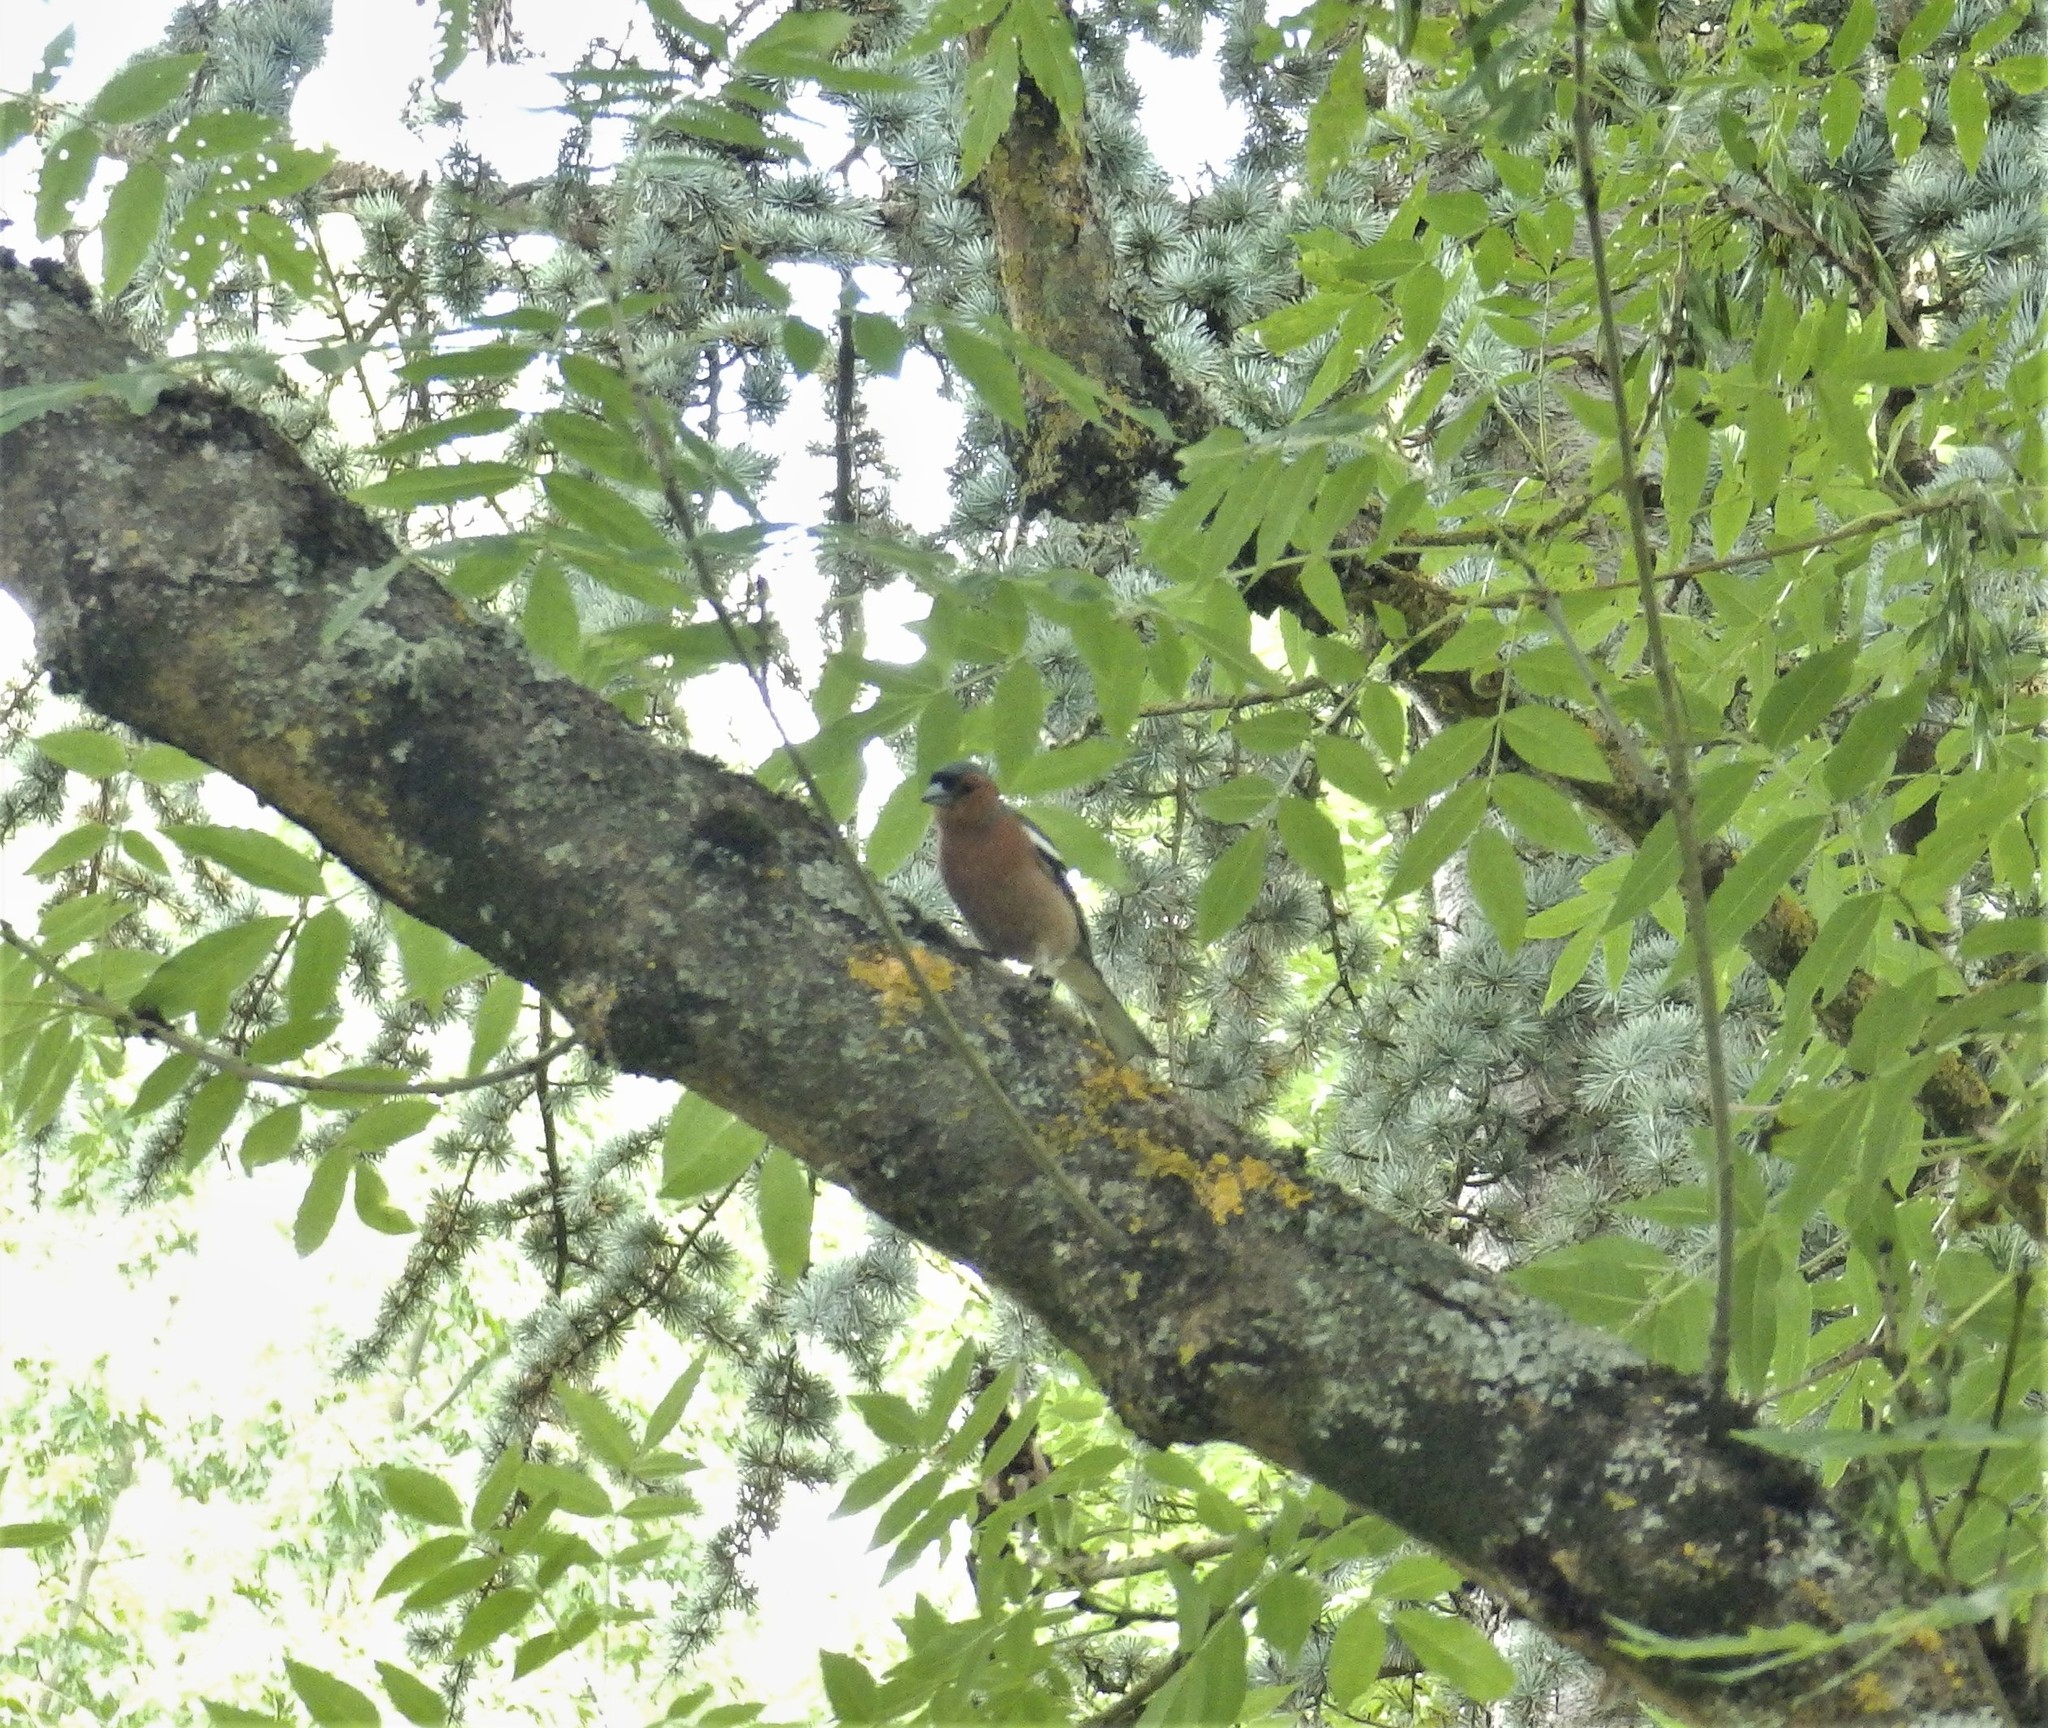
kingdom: Animalia
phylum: Chordata
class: Aves
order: Passeriformes
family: Fringillidae
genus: Fringilla
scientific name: Fringilla coelebs
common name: Common chaffinch
